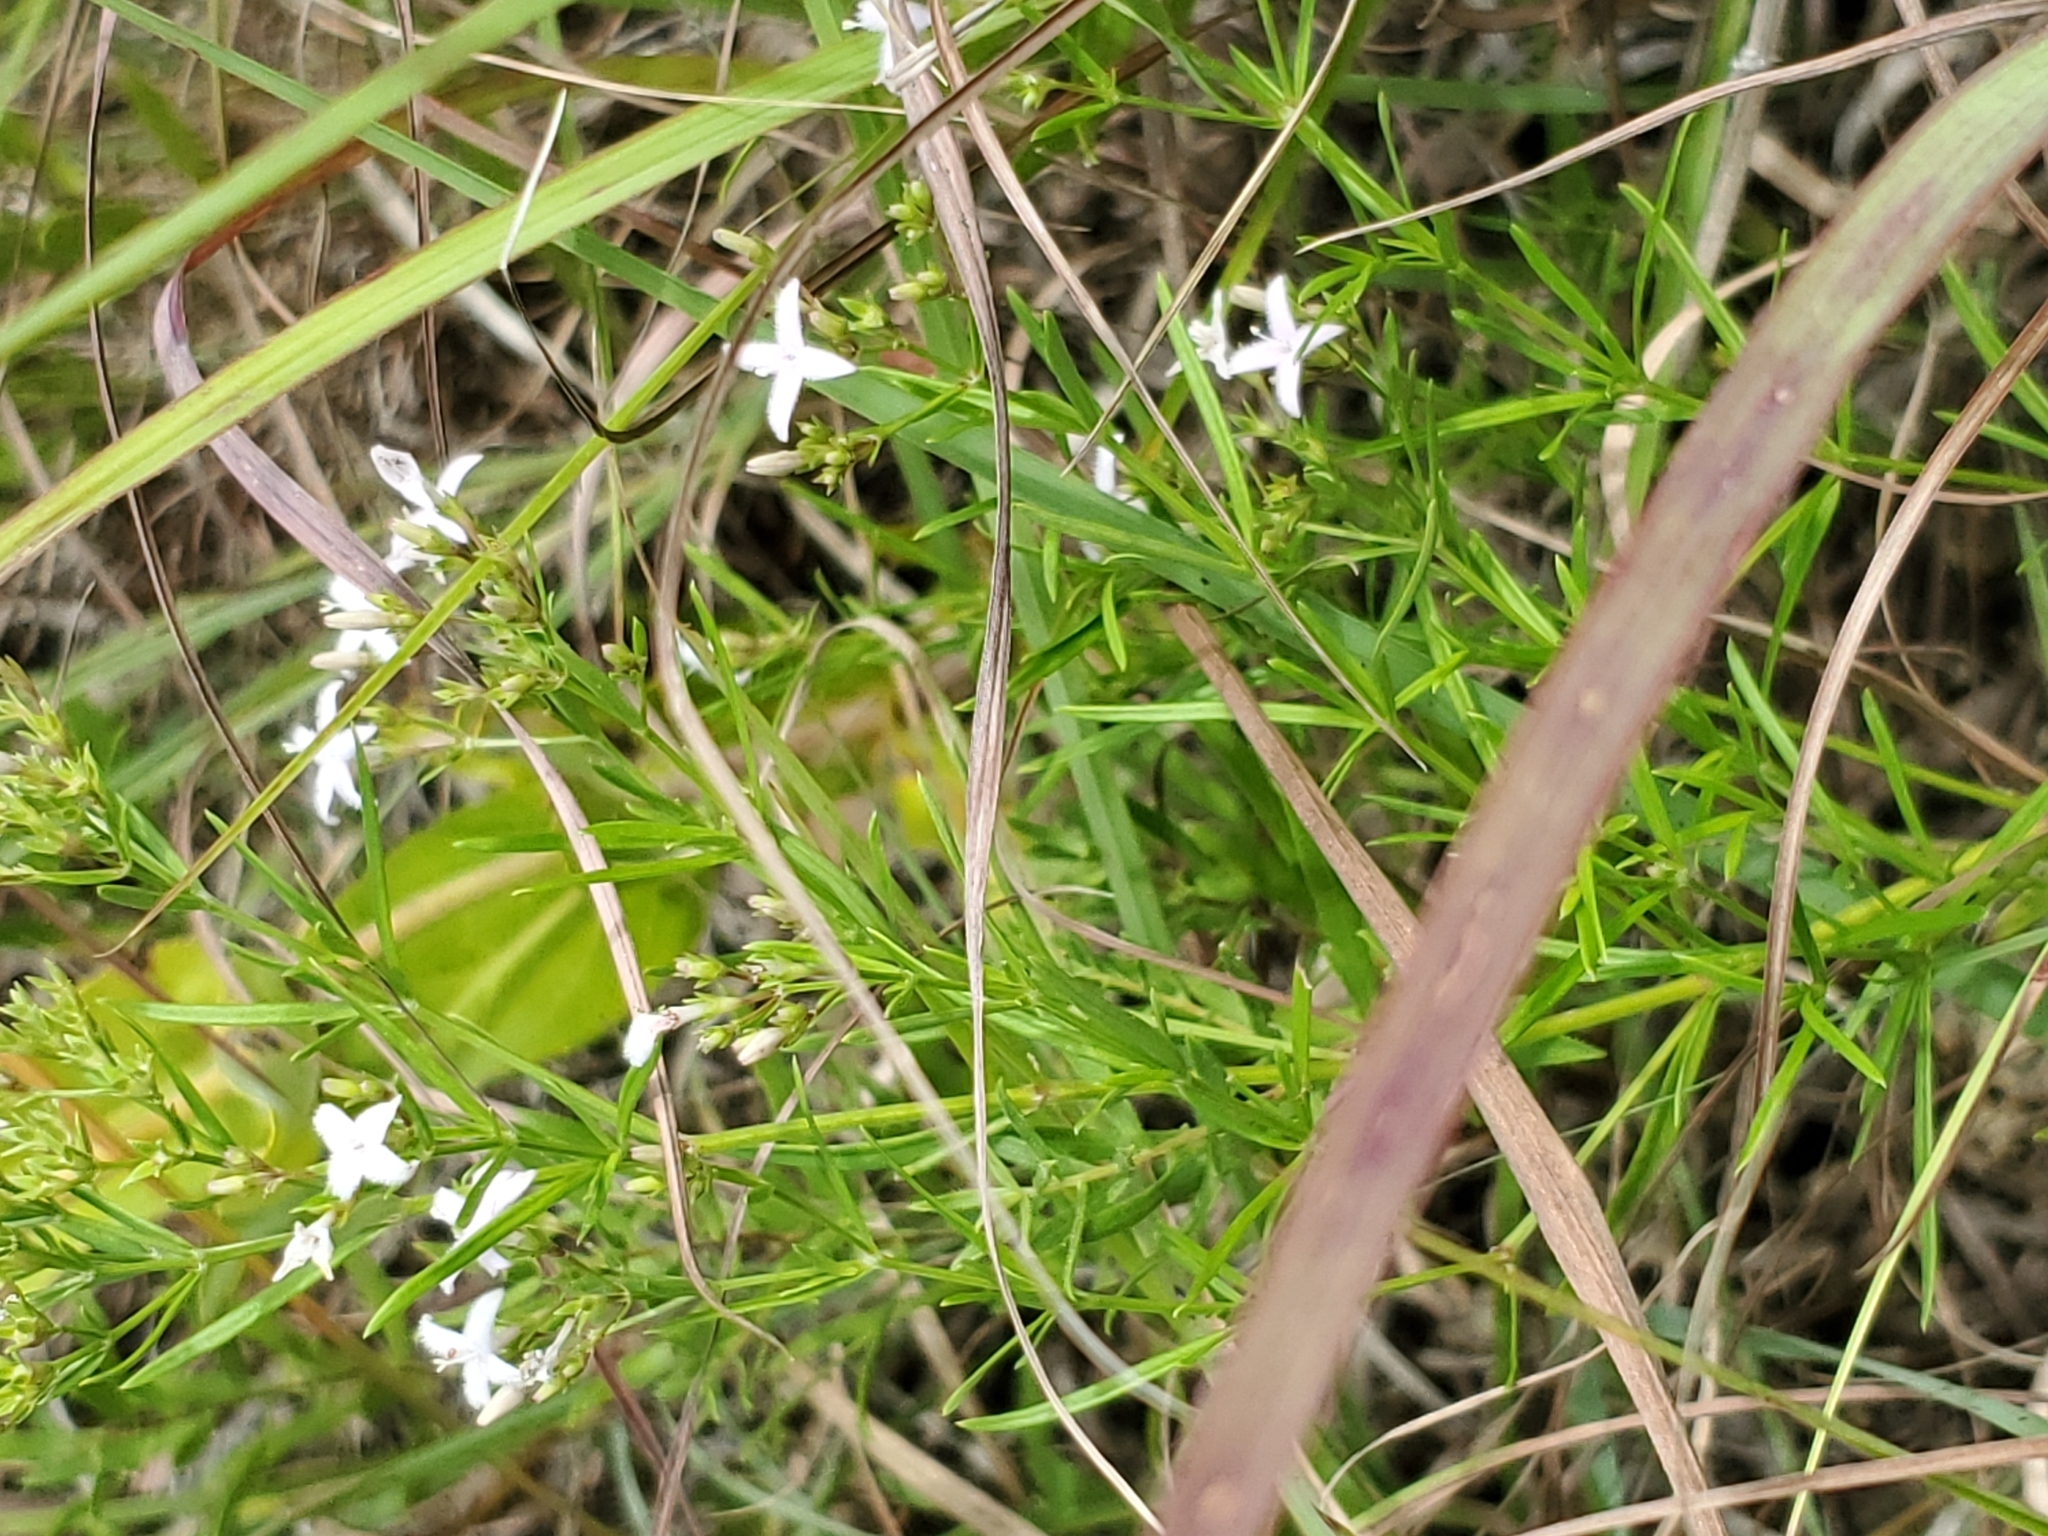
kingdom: Plantae
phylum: Tracheophyta
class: Magnoliopsida
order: Gentianales
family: Rubiaceae
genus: Stenaria
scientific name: Stenaria nigricans
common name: Diamondflowers
